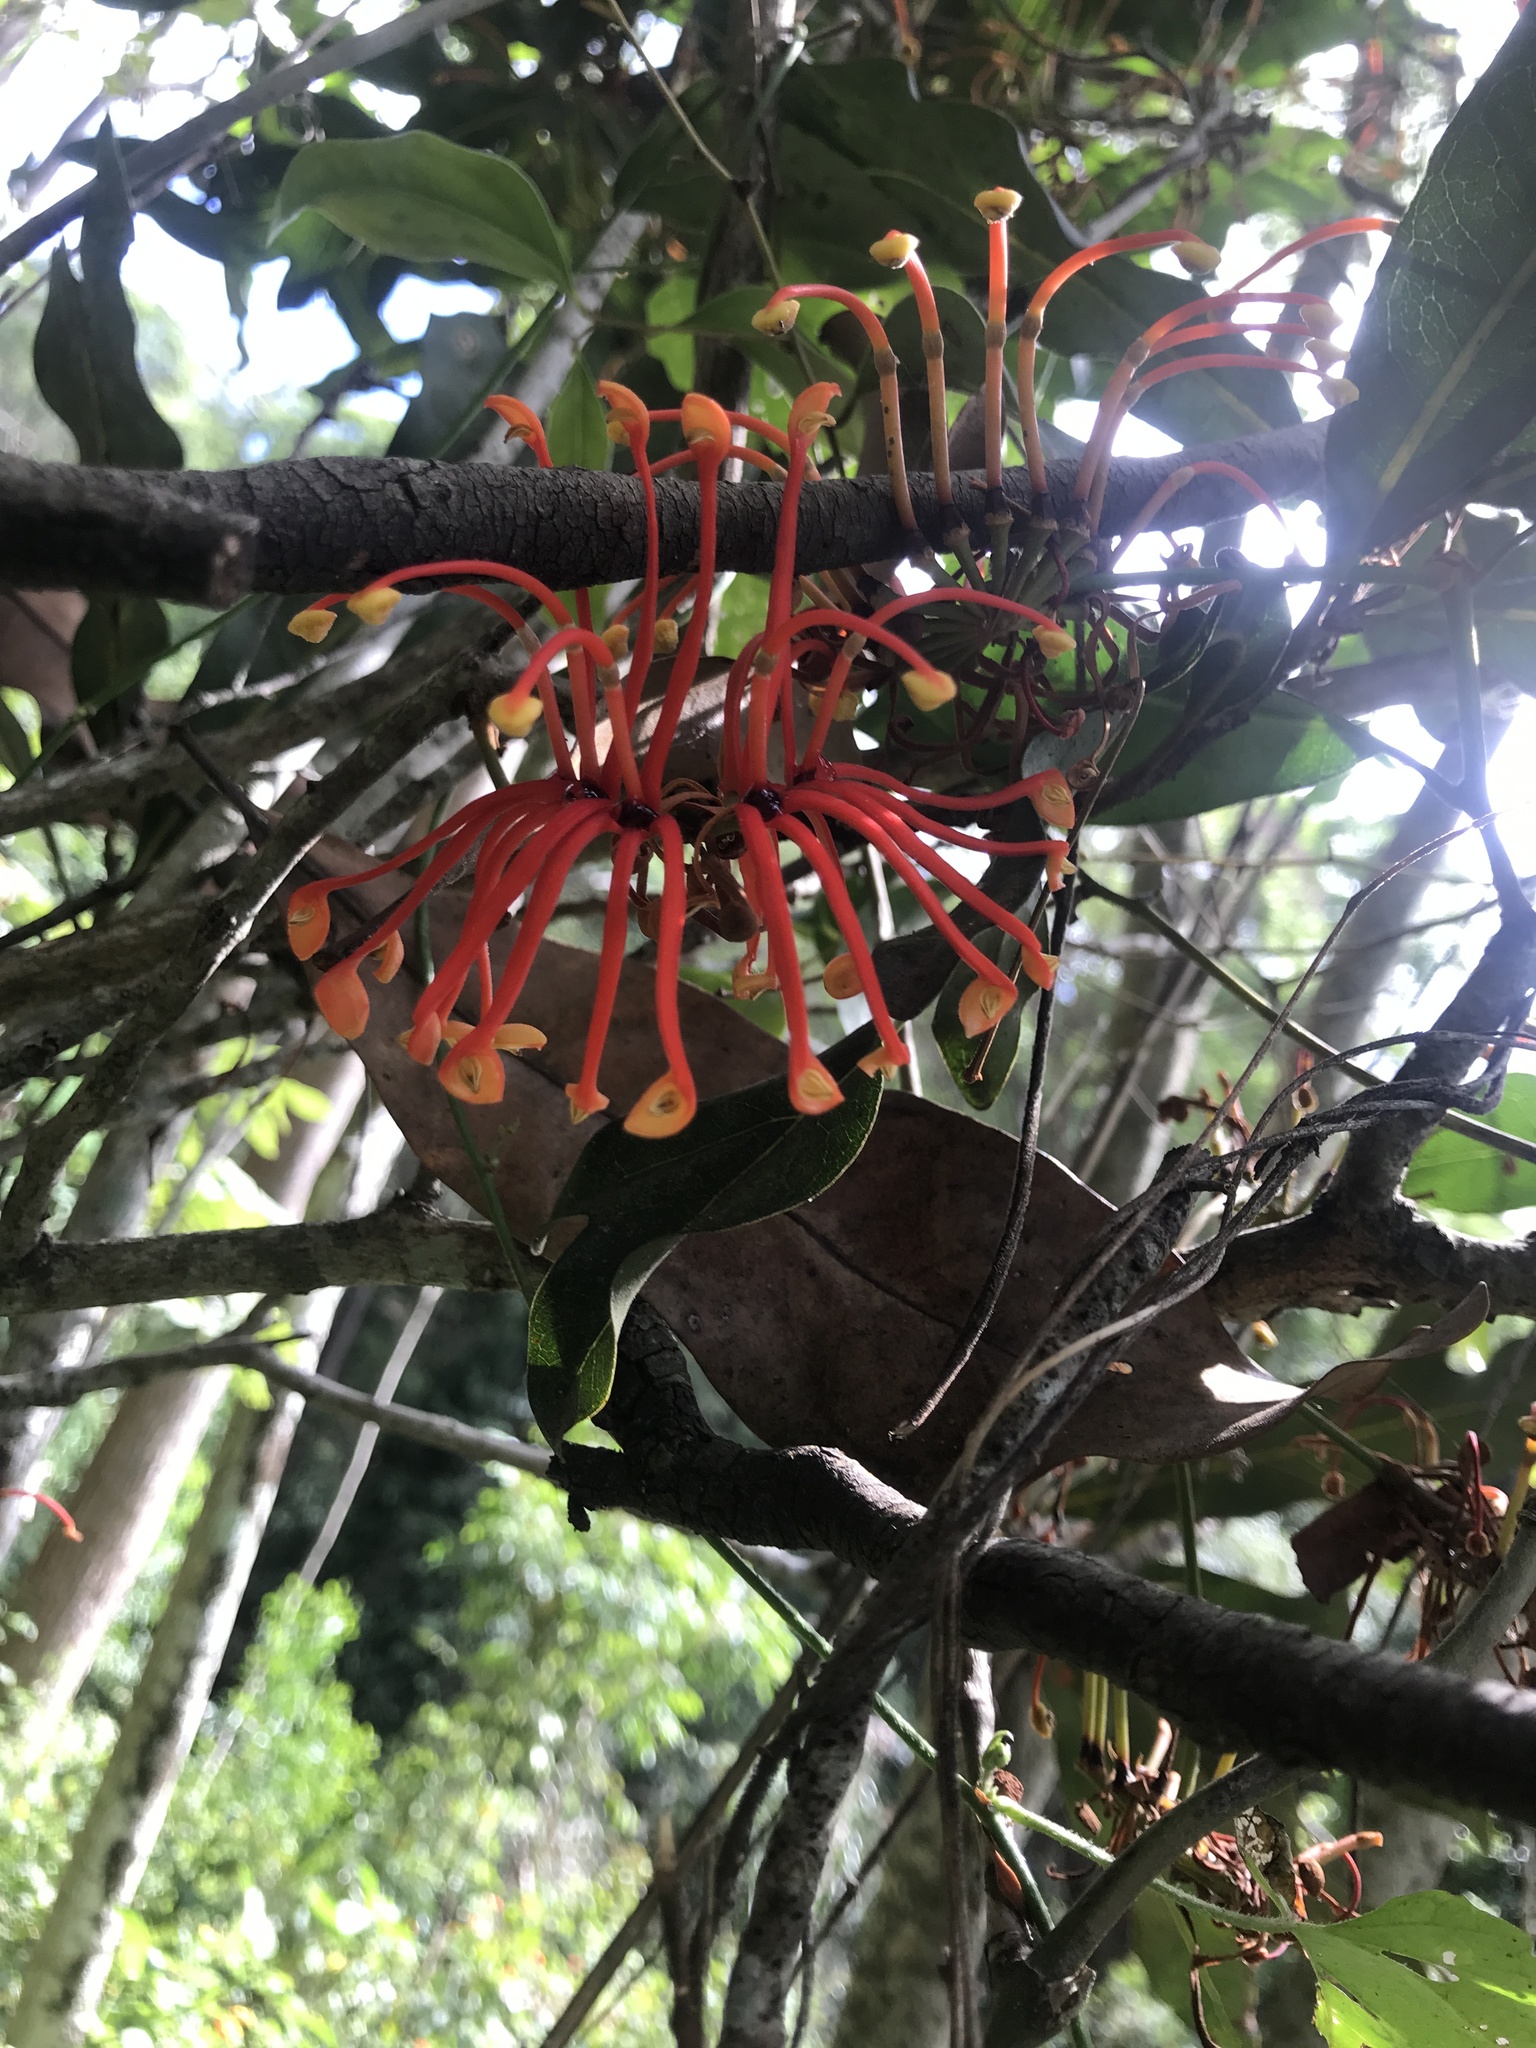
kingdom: Plantae
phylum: Tracheophyta
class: Magnoliopsida
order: Proteales
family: Proteaceae
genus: Stenocarpus
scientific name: Stenocarpus sinuatus
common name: Queensland fire-wheel-tree
